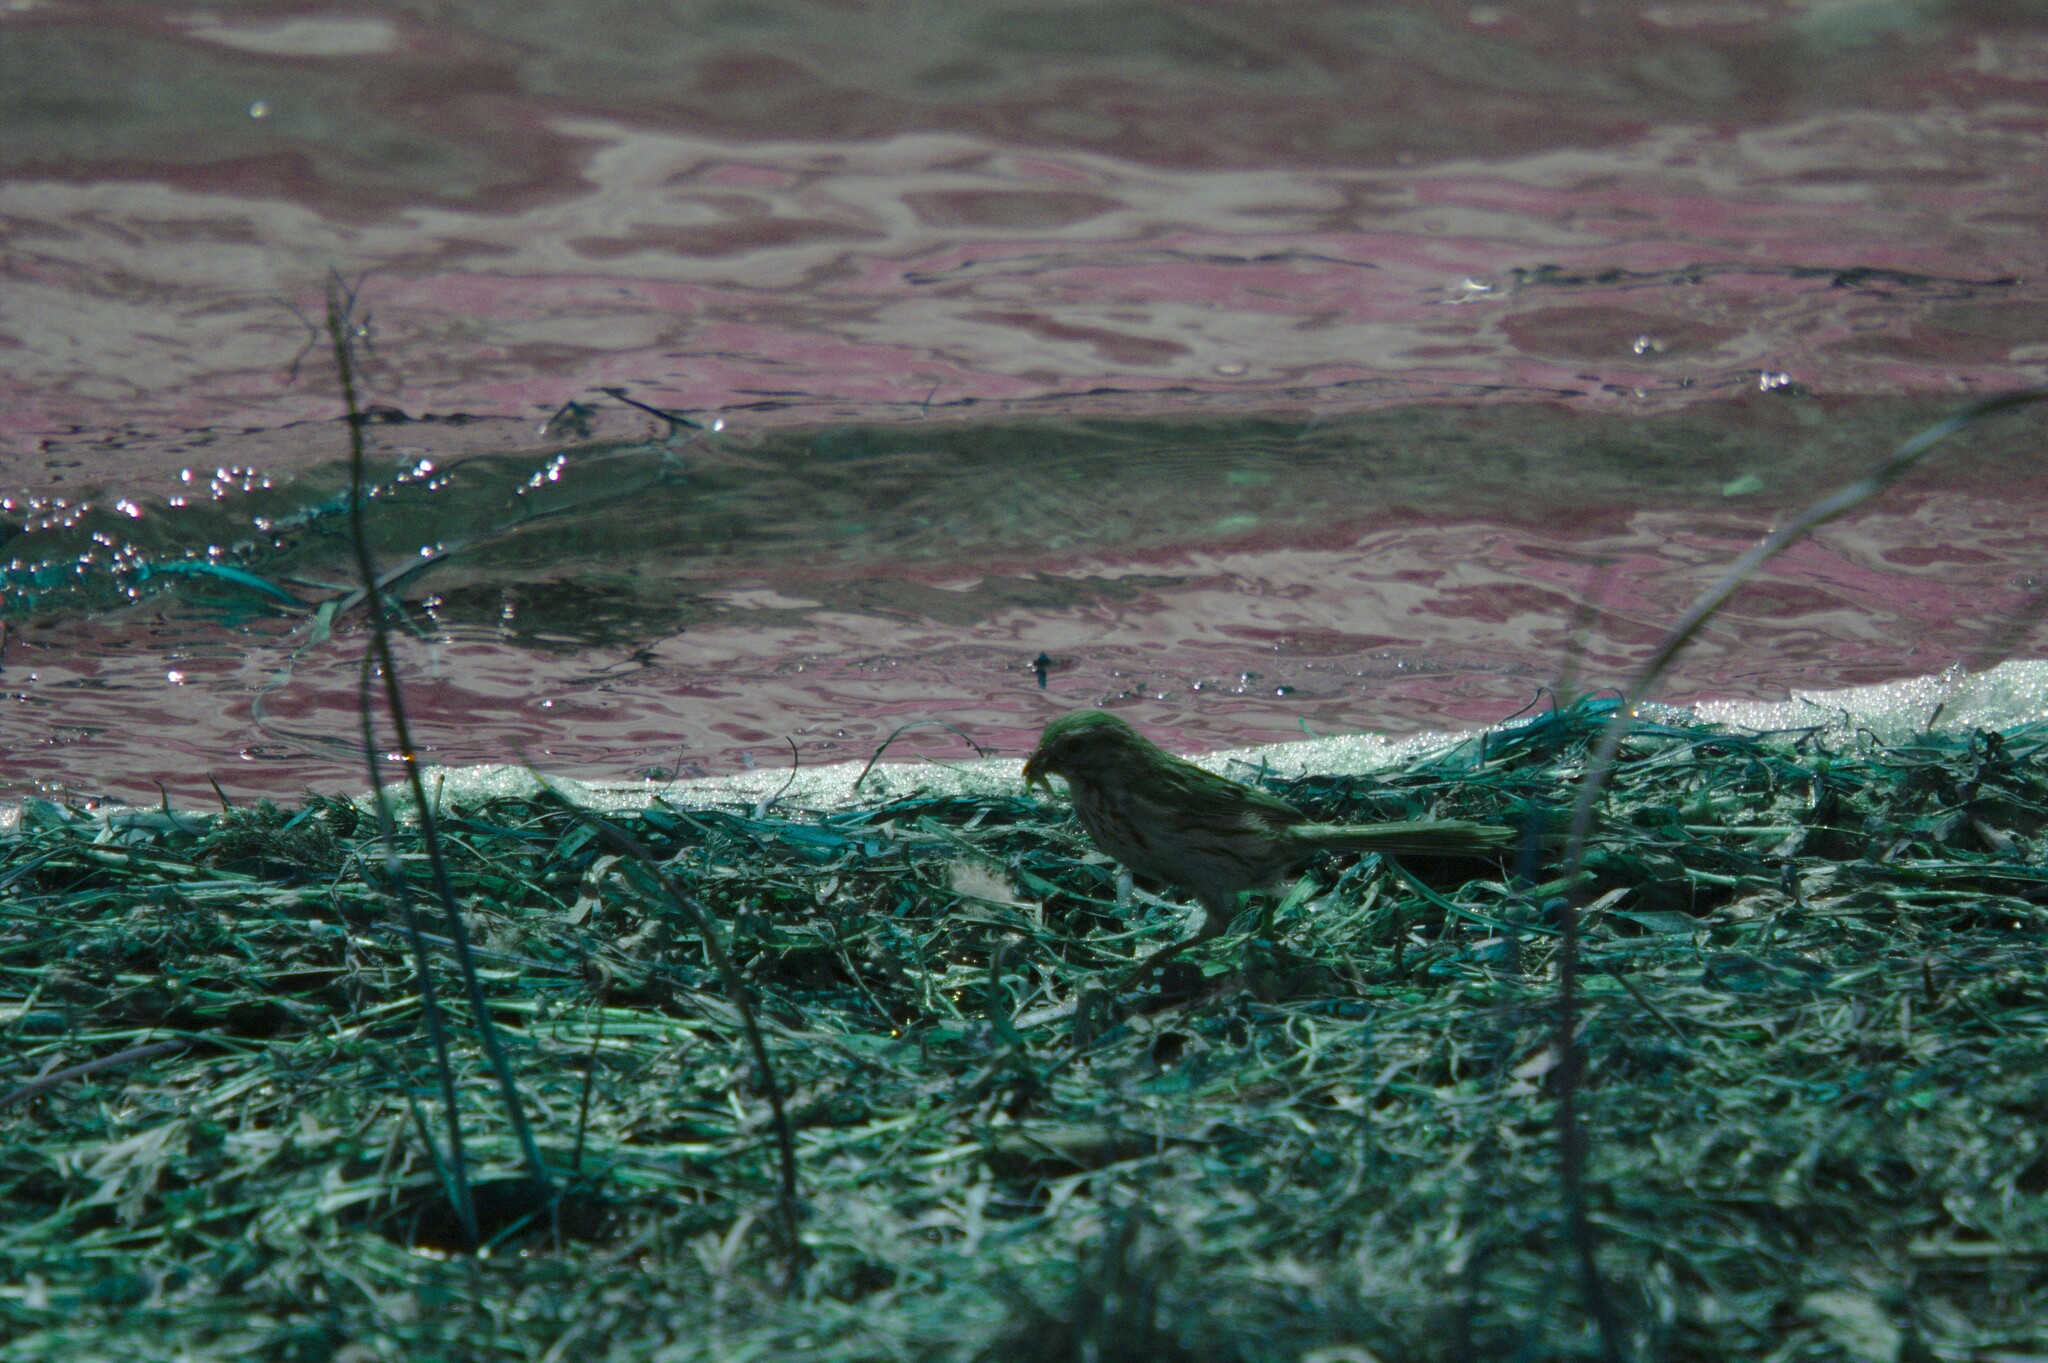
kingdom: Animalia
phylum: Chordata
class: Aves
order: Passeriformes
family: Passerellidae
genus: Melospiza
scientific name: Melospiza melodia
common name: Song sparrow
